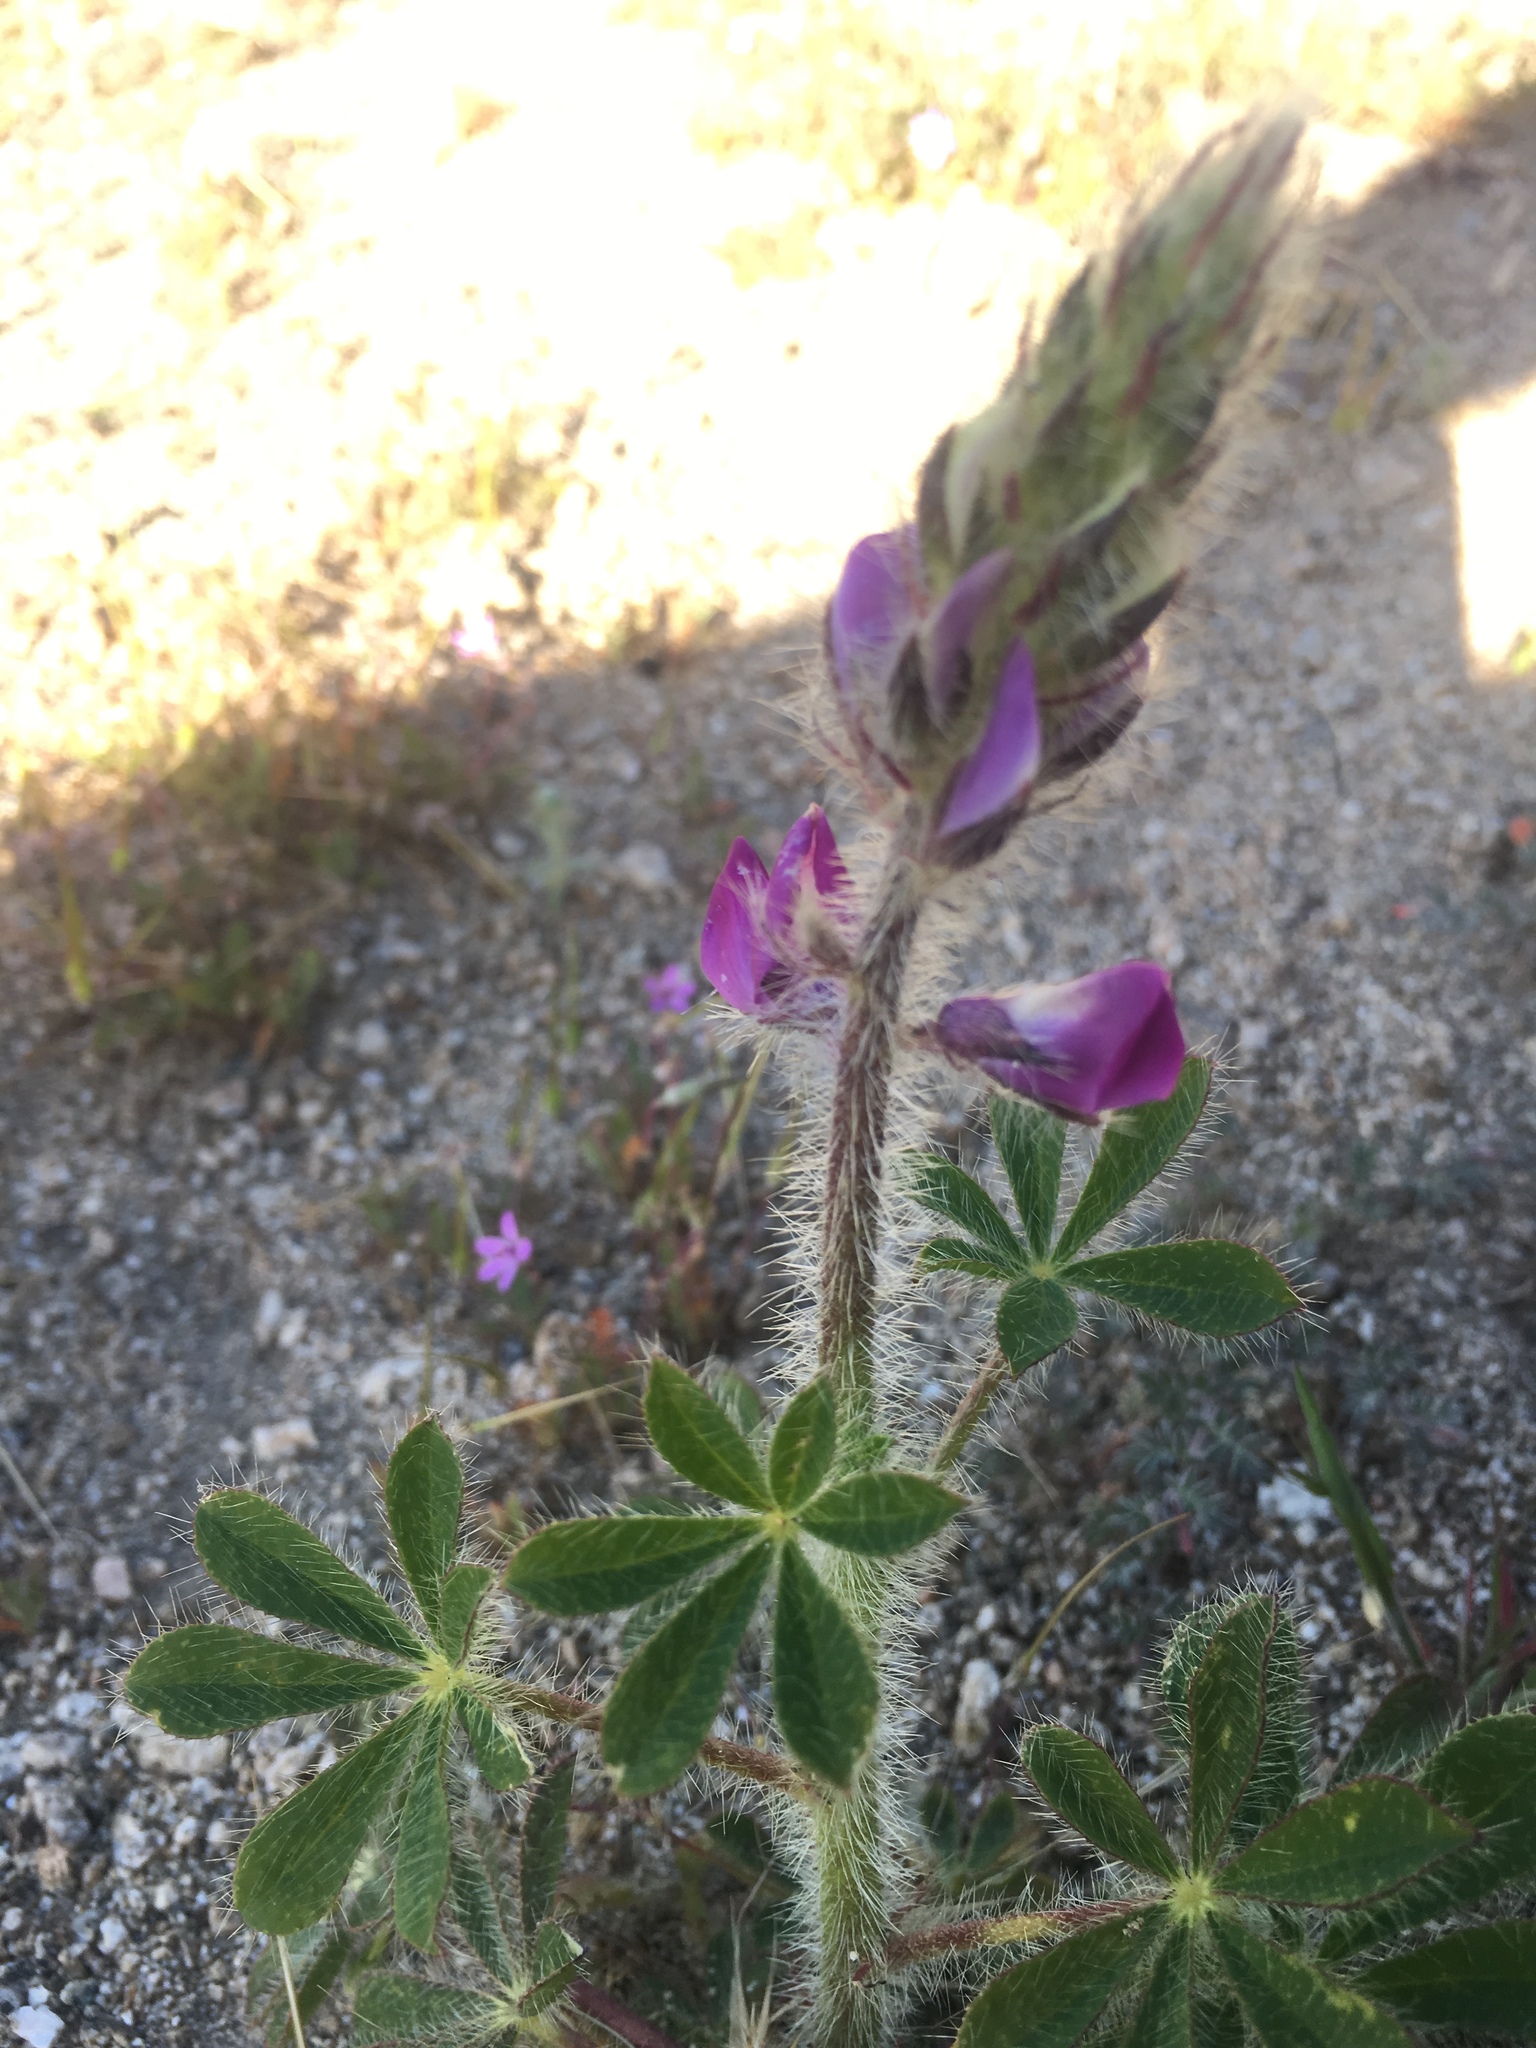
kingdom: Plantae
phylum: Tracheophyta
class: Magnoliopsida
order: Fabales
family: Fabaceae
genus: Lupinus
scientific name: Lupinus hirsutissimus
